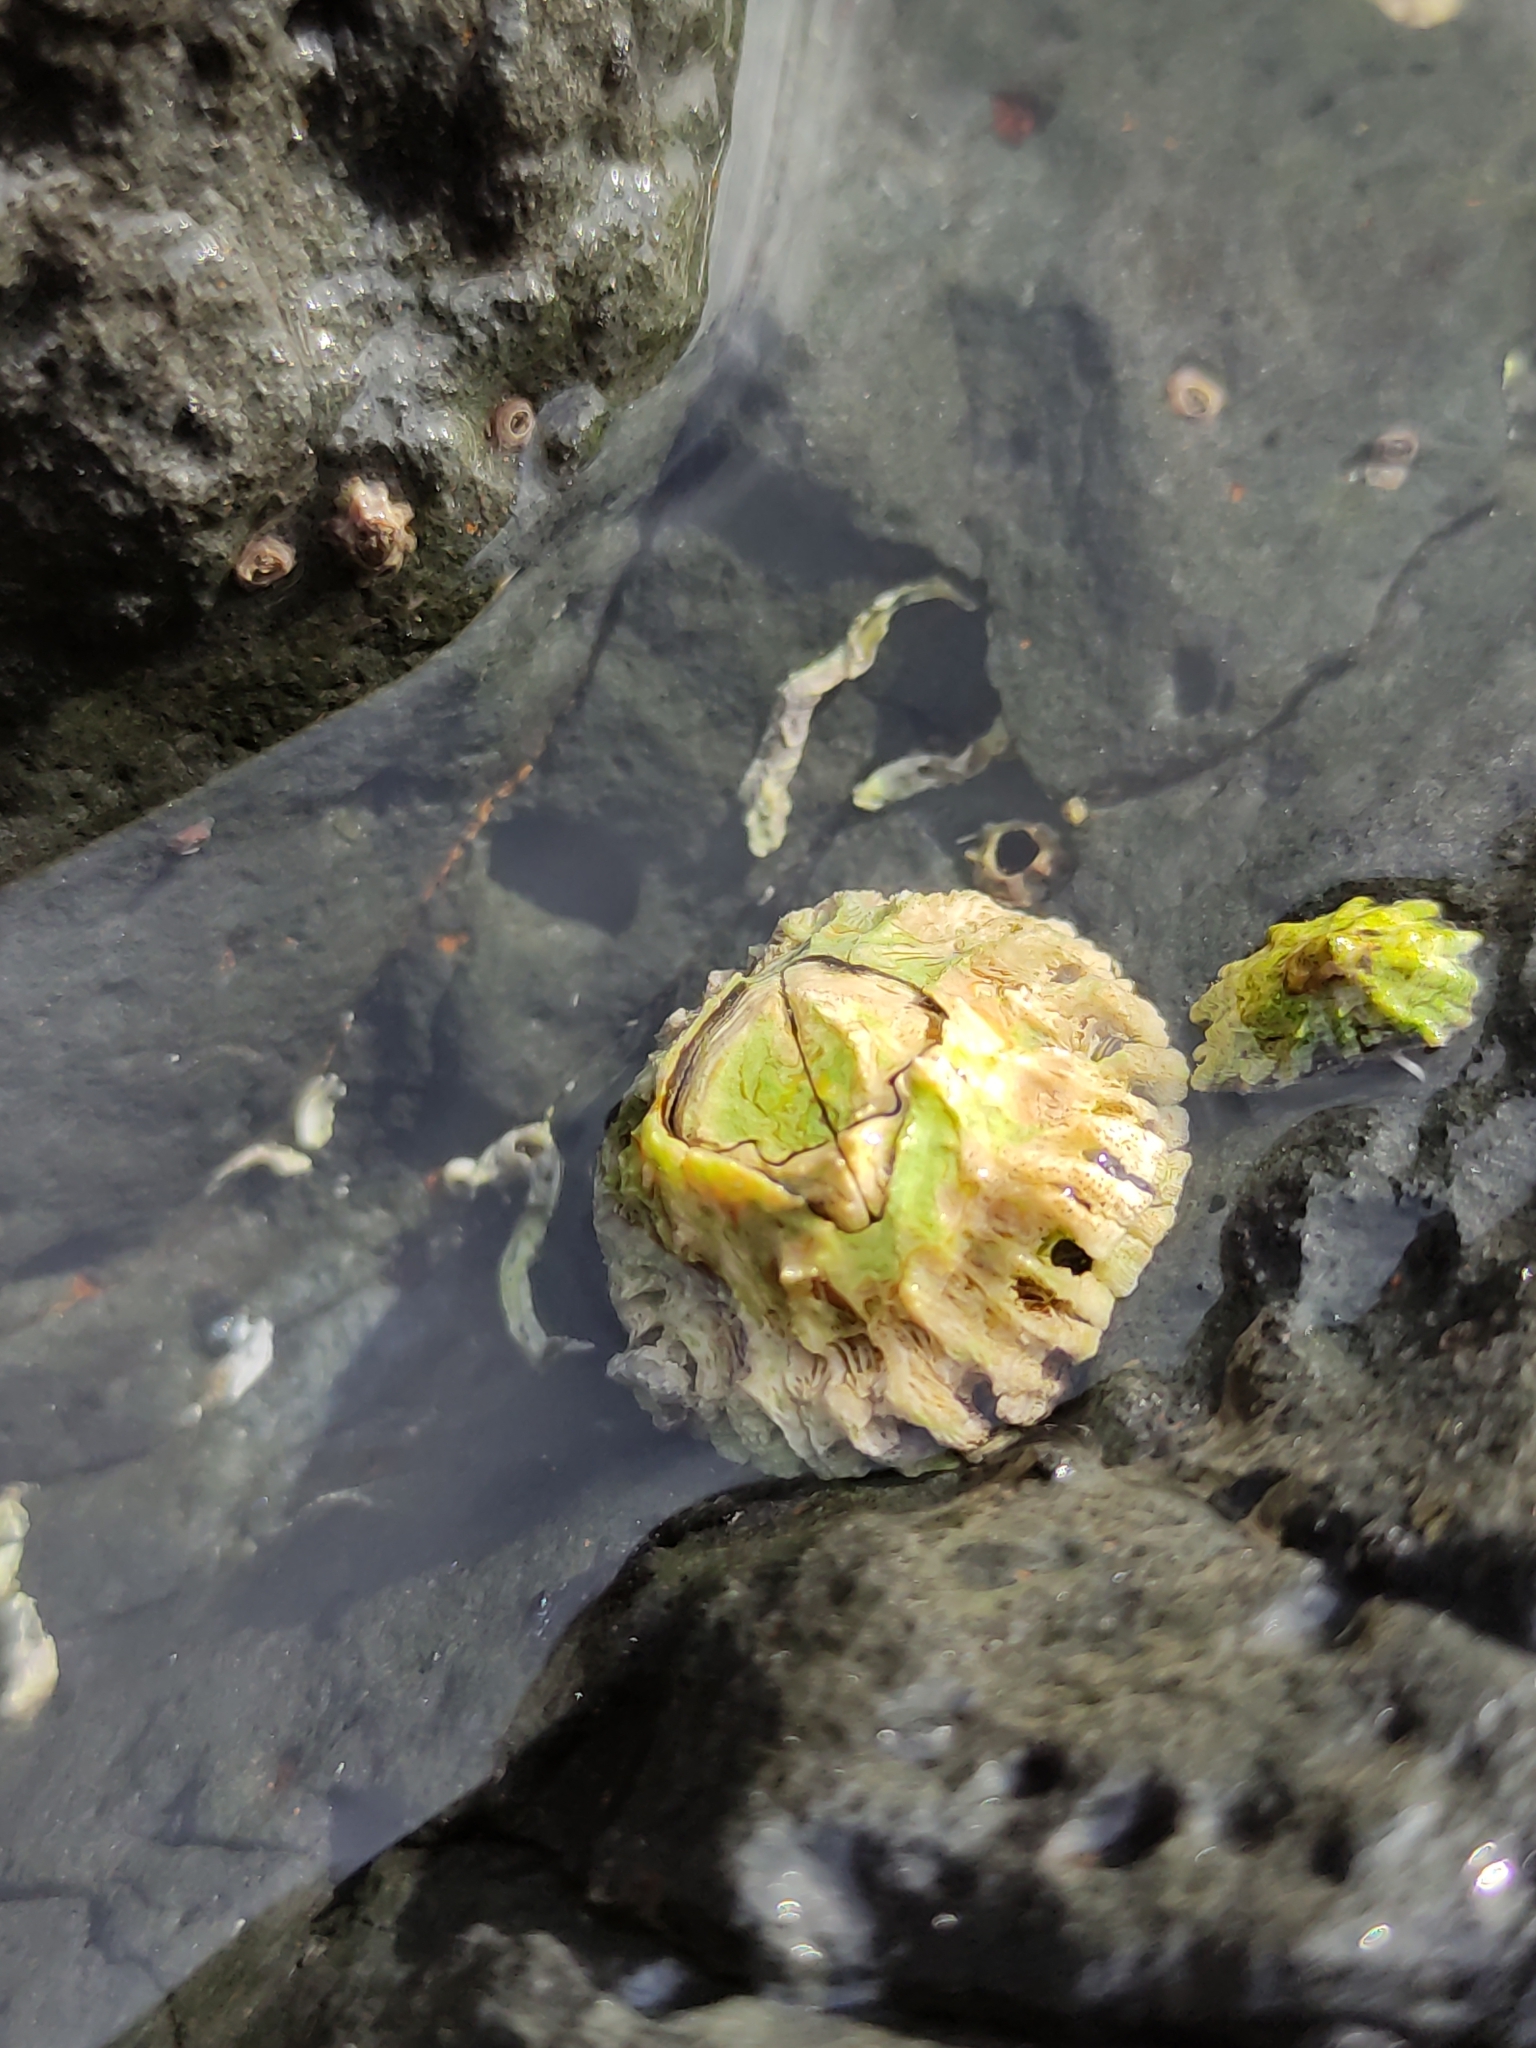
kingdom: Animalia
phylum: Arthropoda
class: Maxillopoda
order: Sessilia
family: Tetraclitidae
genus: Epopella
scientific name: Epopella plicata
